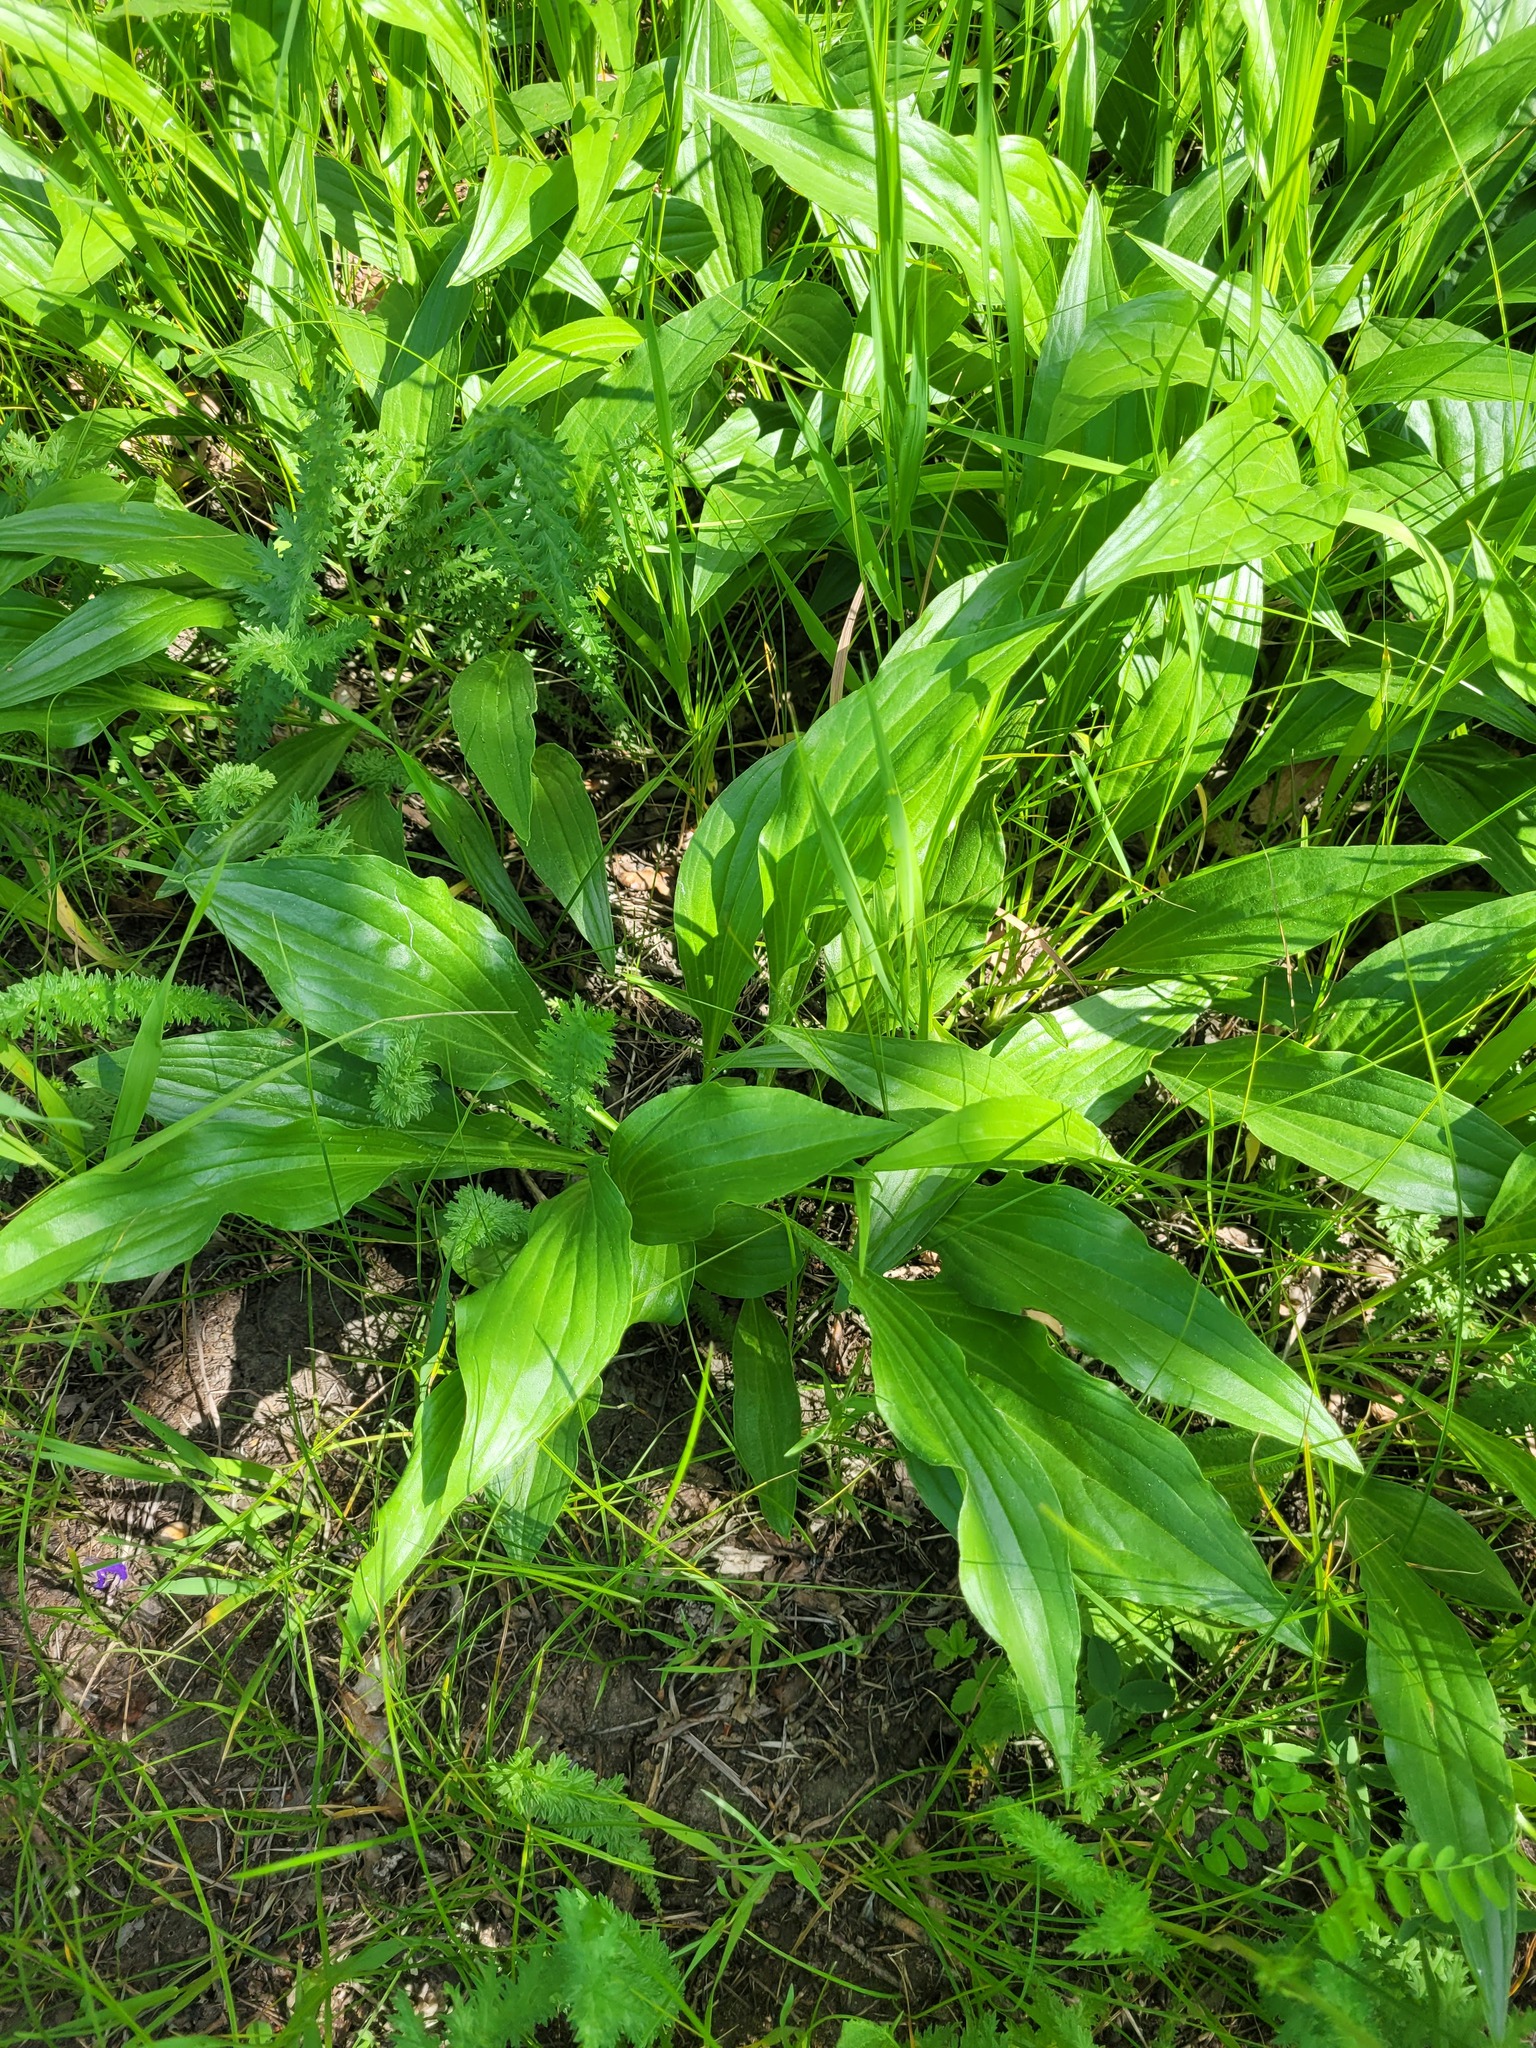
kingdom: Plantae
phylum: Tracheophyta
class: Magnoliopsida
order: Asterales
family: Asteraceae
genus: Scorzonera
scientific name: Scorzonera humilis
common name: Viper's-grass
